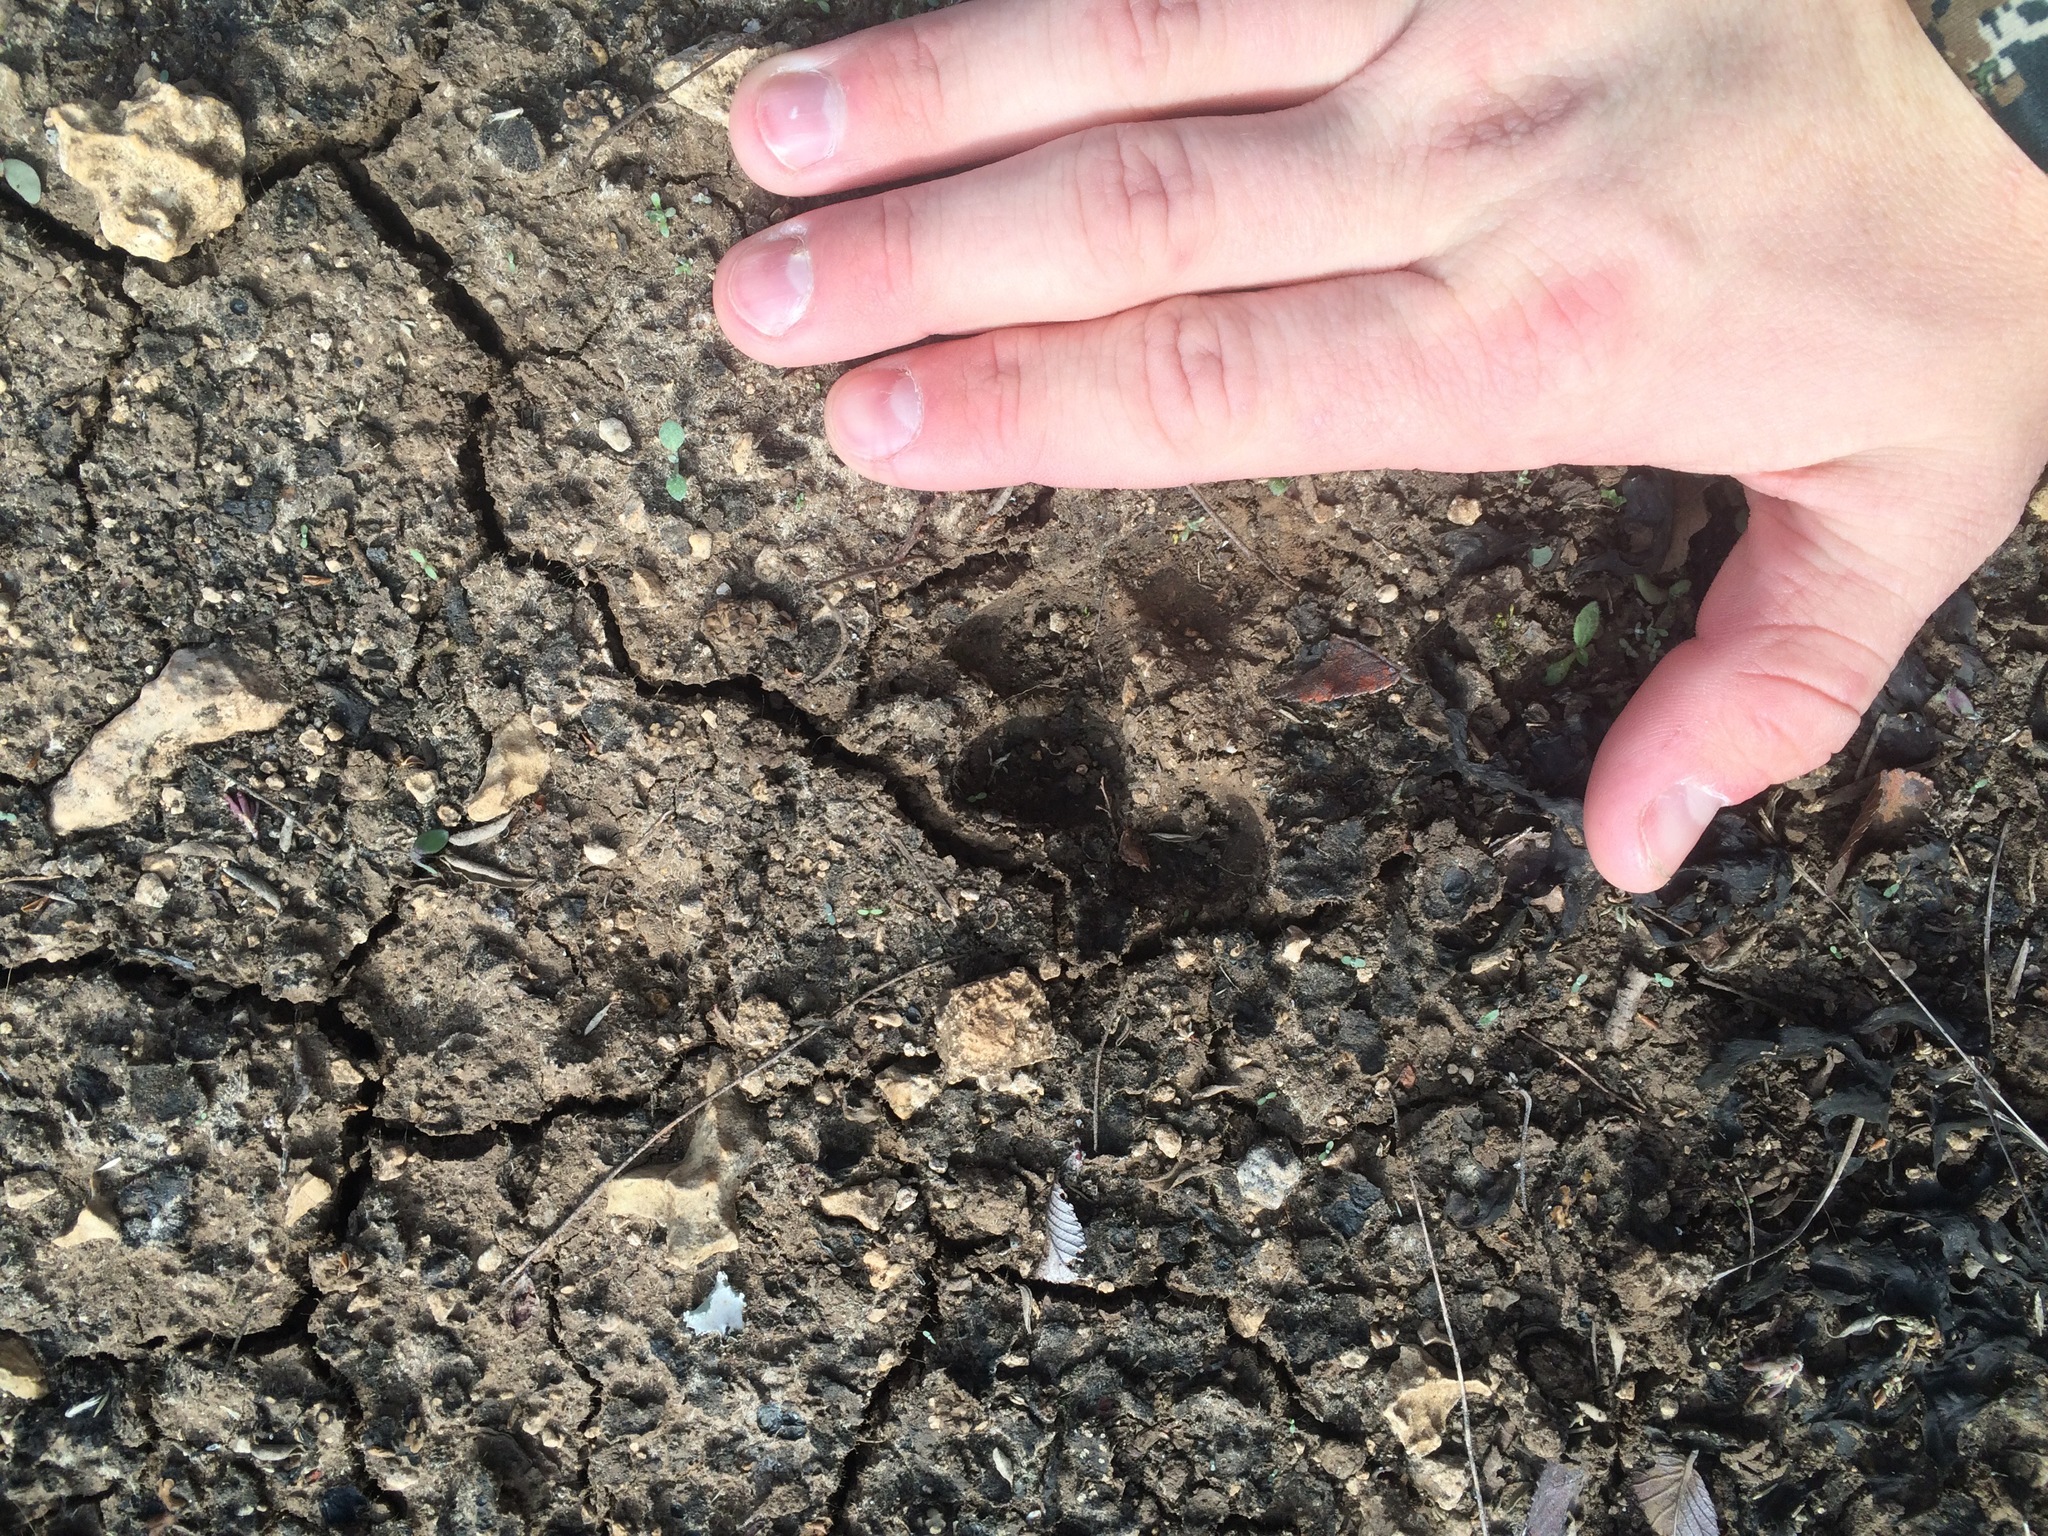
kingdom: Animalia
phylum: Chordata
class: Mammalia
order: Carnivora
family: Canidae
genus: Canis
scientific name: Canis latrans
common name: Coyote
